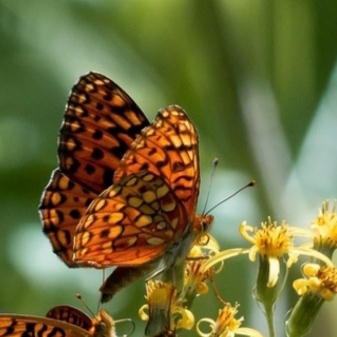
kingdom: Animalia
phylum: Arthropoda
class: Insecta
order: Lepidoptera
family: Nymphalidae
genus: Speyeria
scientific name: Speyeria hydaspe
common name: Hydaspe fritillary
